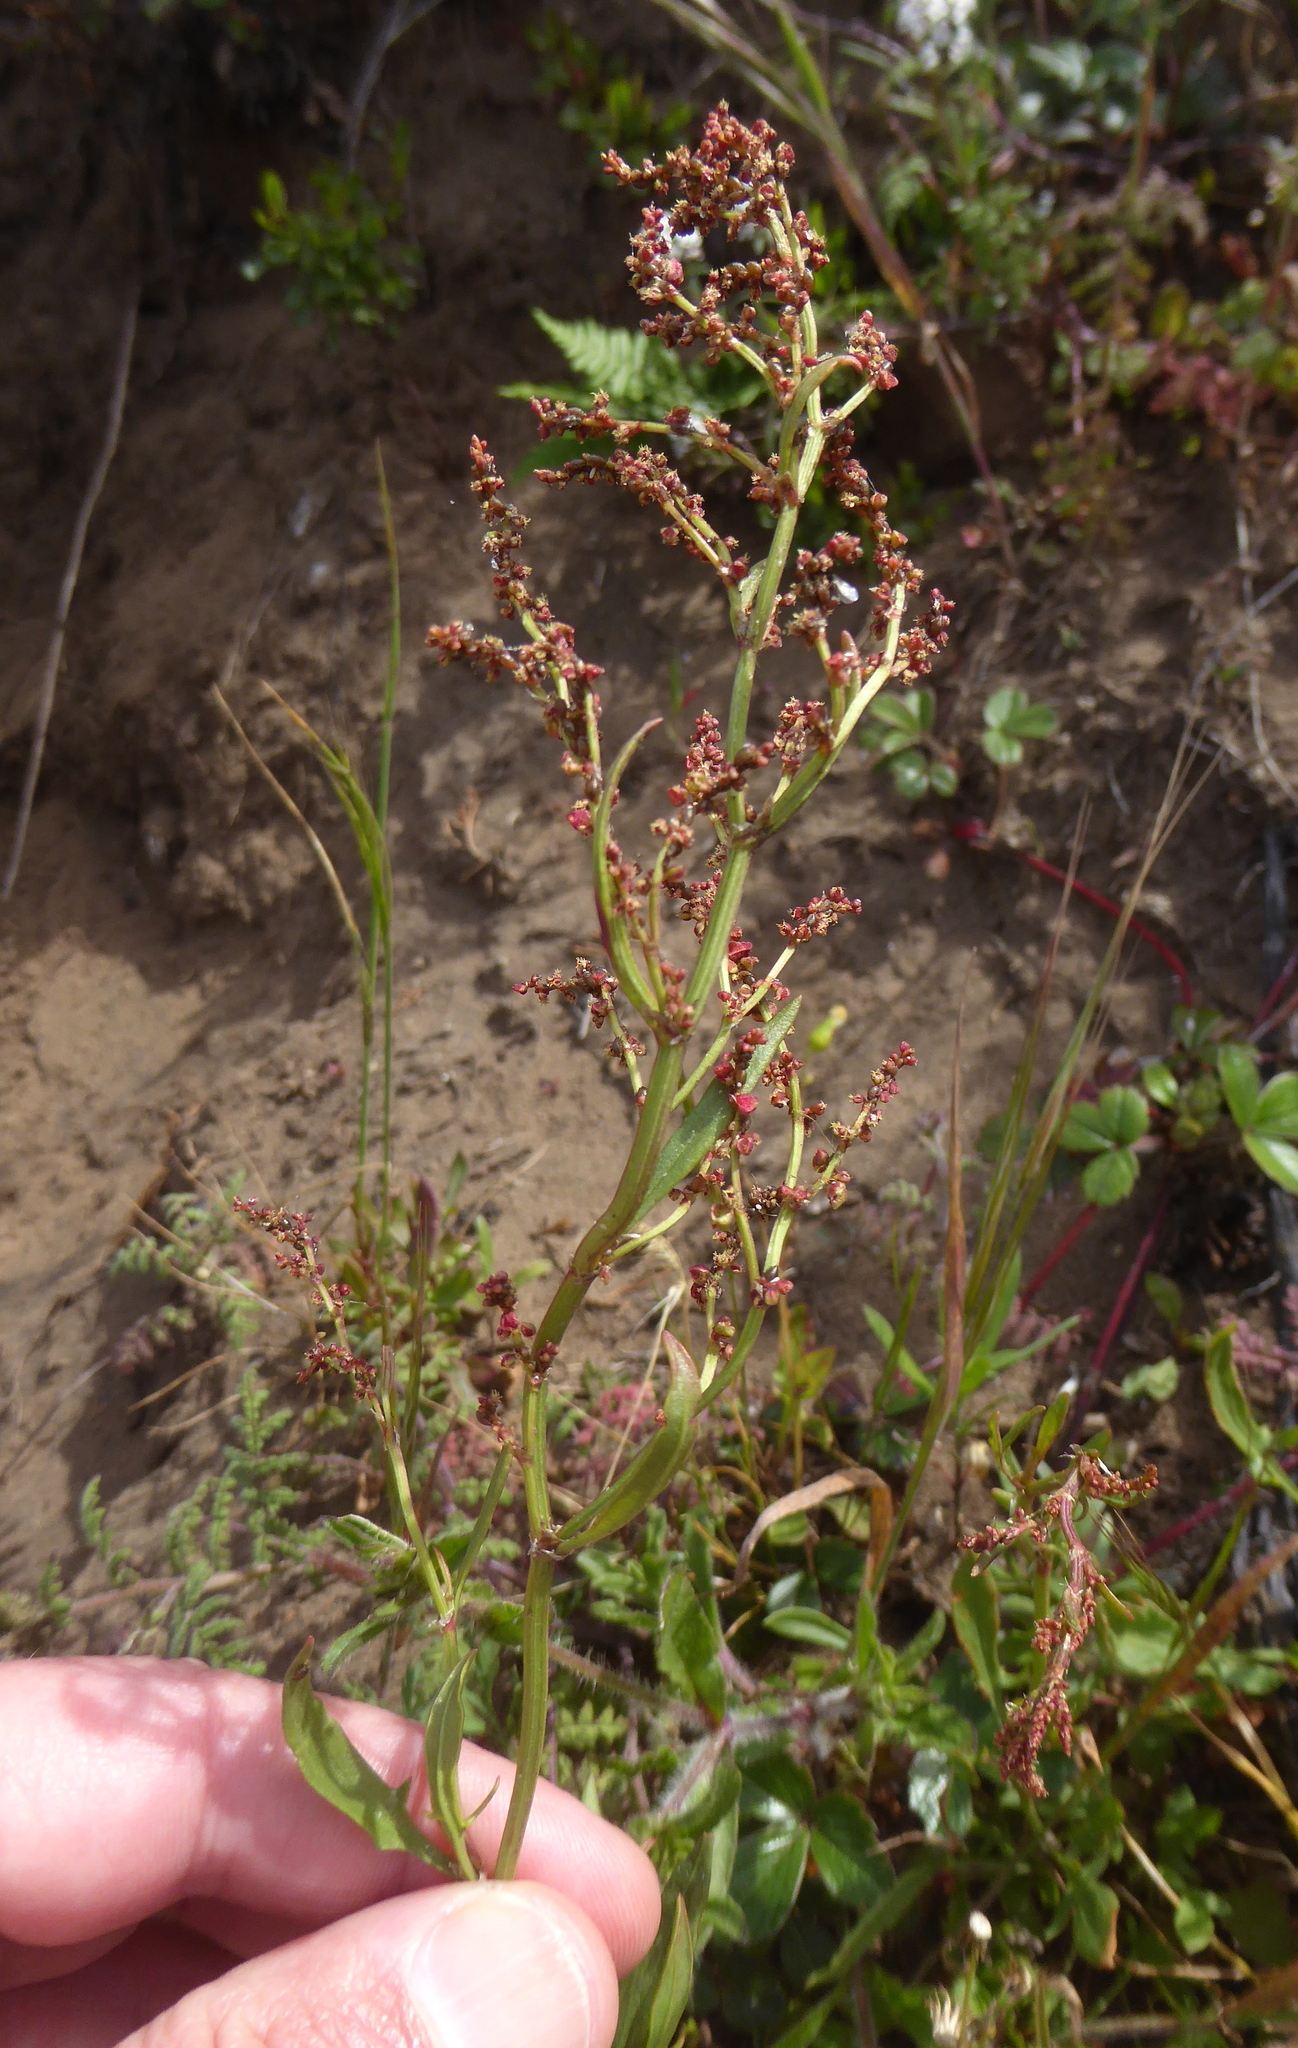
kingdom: Plantae
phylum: Tracheophyta
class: Magnoliopsida
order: Caryophyllales
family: Polygonaceae
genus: Rumex
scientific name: Rumex acetosella
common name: Common sheep sorrel
